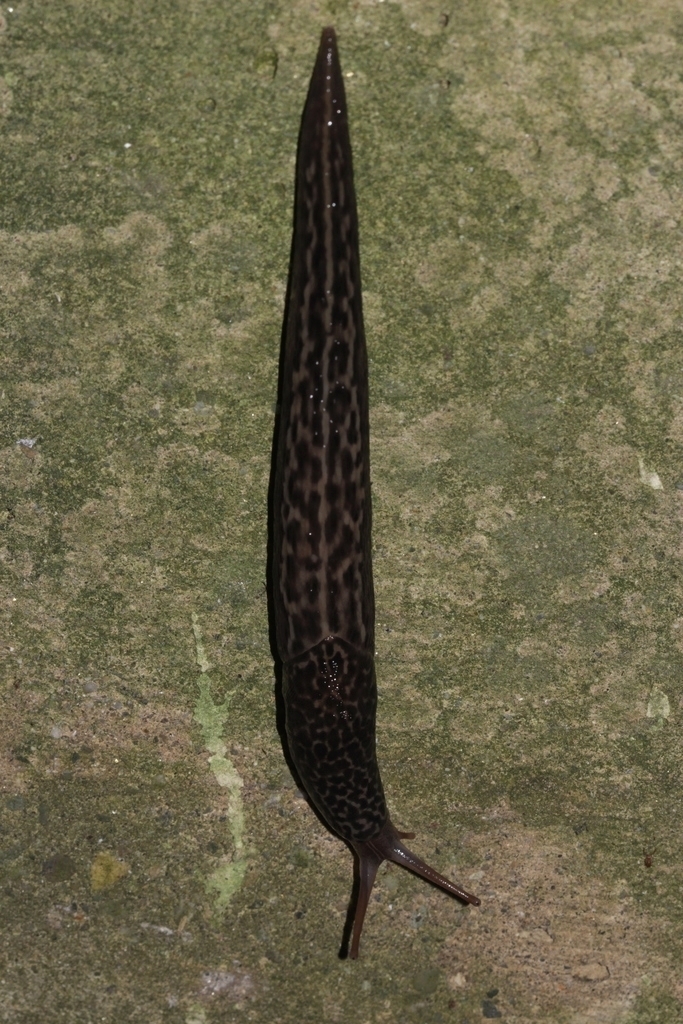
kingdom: Animalia
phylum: Mollusca
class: Gastropoda
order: Stylommatophora
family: Limacidae
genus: Limax
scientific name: Limax maximus
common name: Great grey slug
